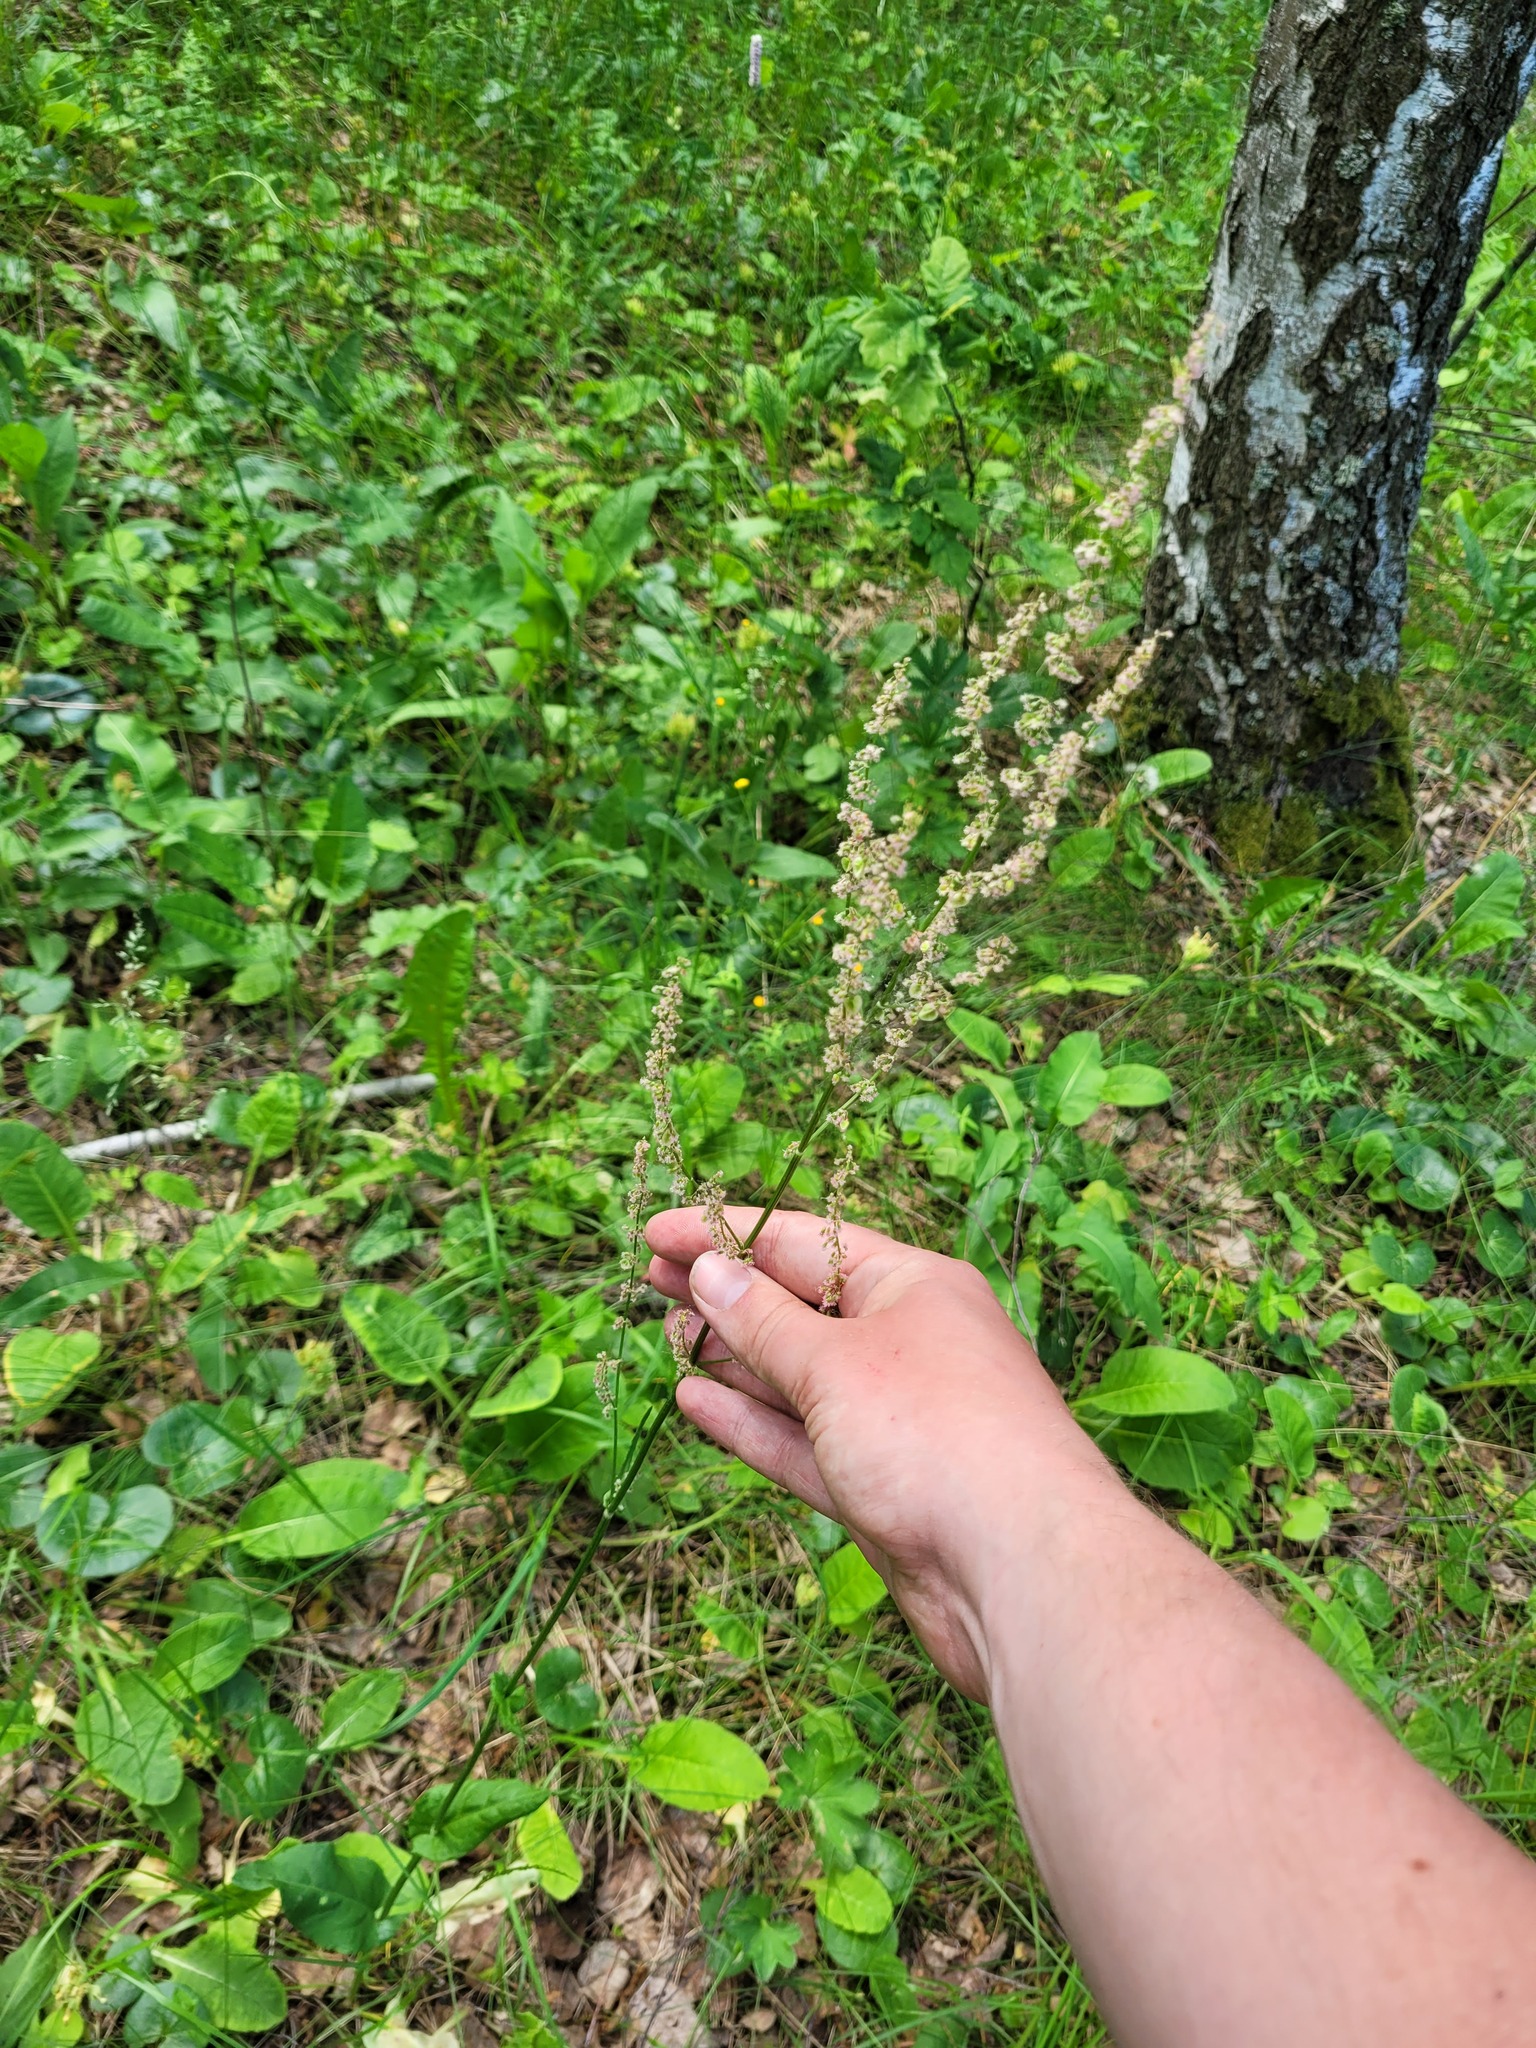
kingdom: Plantae
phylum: Tracheophyta
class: Magnoliopsida
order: Caryophyllales
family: Polygonaceae
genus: Rumex
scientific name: Rumex acetosa
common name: Garden sorrel
